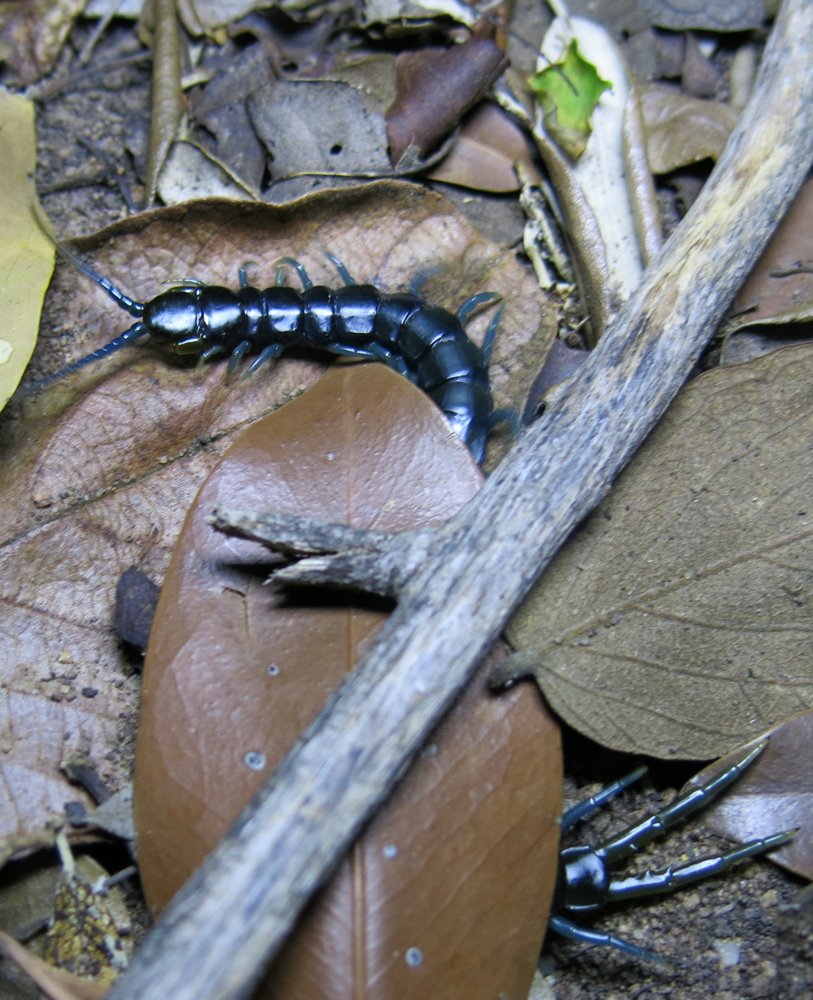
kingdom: Animalia
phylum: Arthropoda
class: Chilopoda
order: Scolopendromorpha
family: Scolopendridae
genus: Ethmostigmus
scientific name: Ethmostigmus trigonopodus
